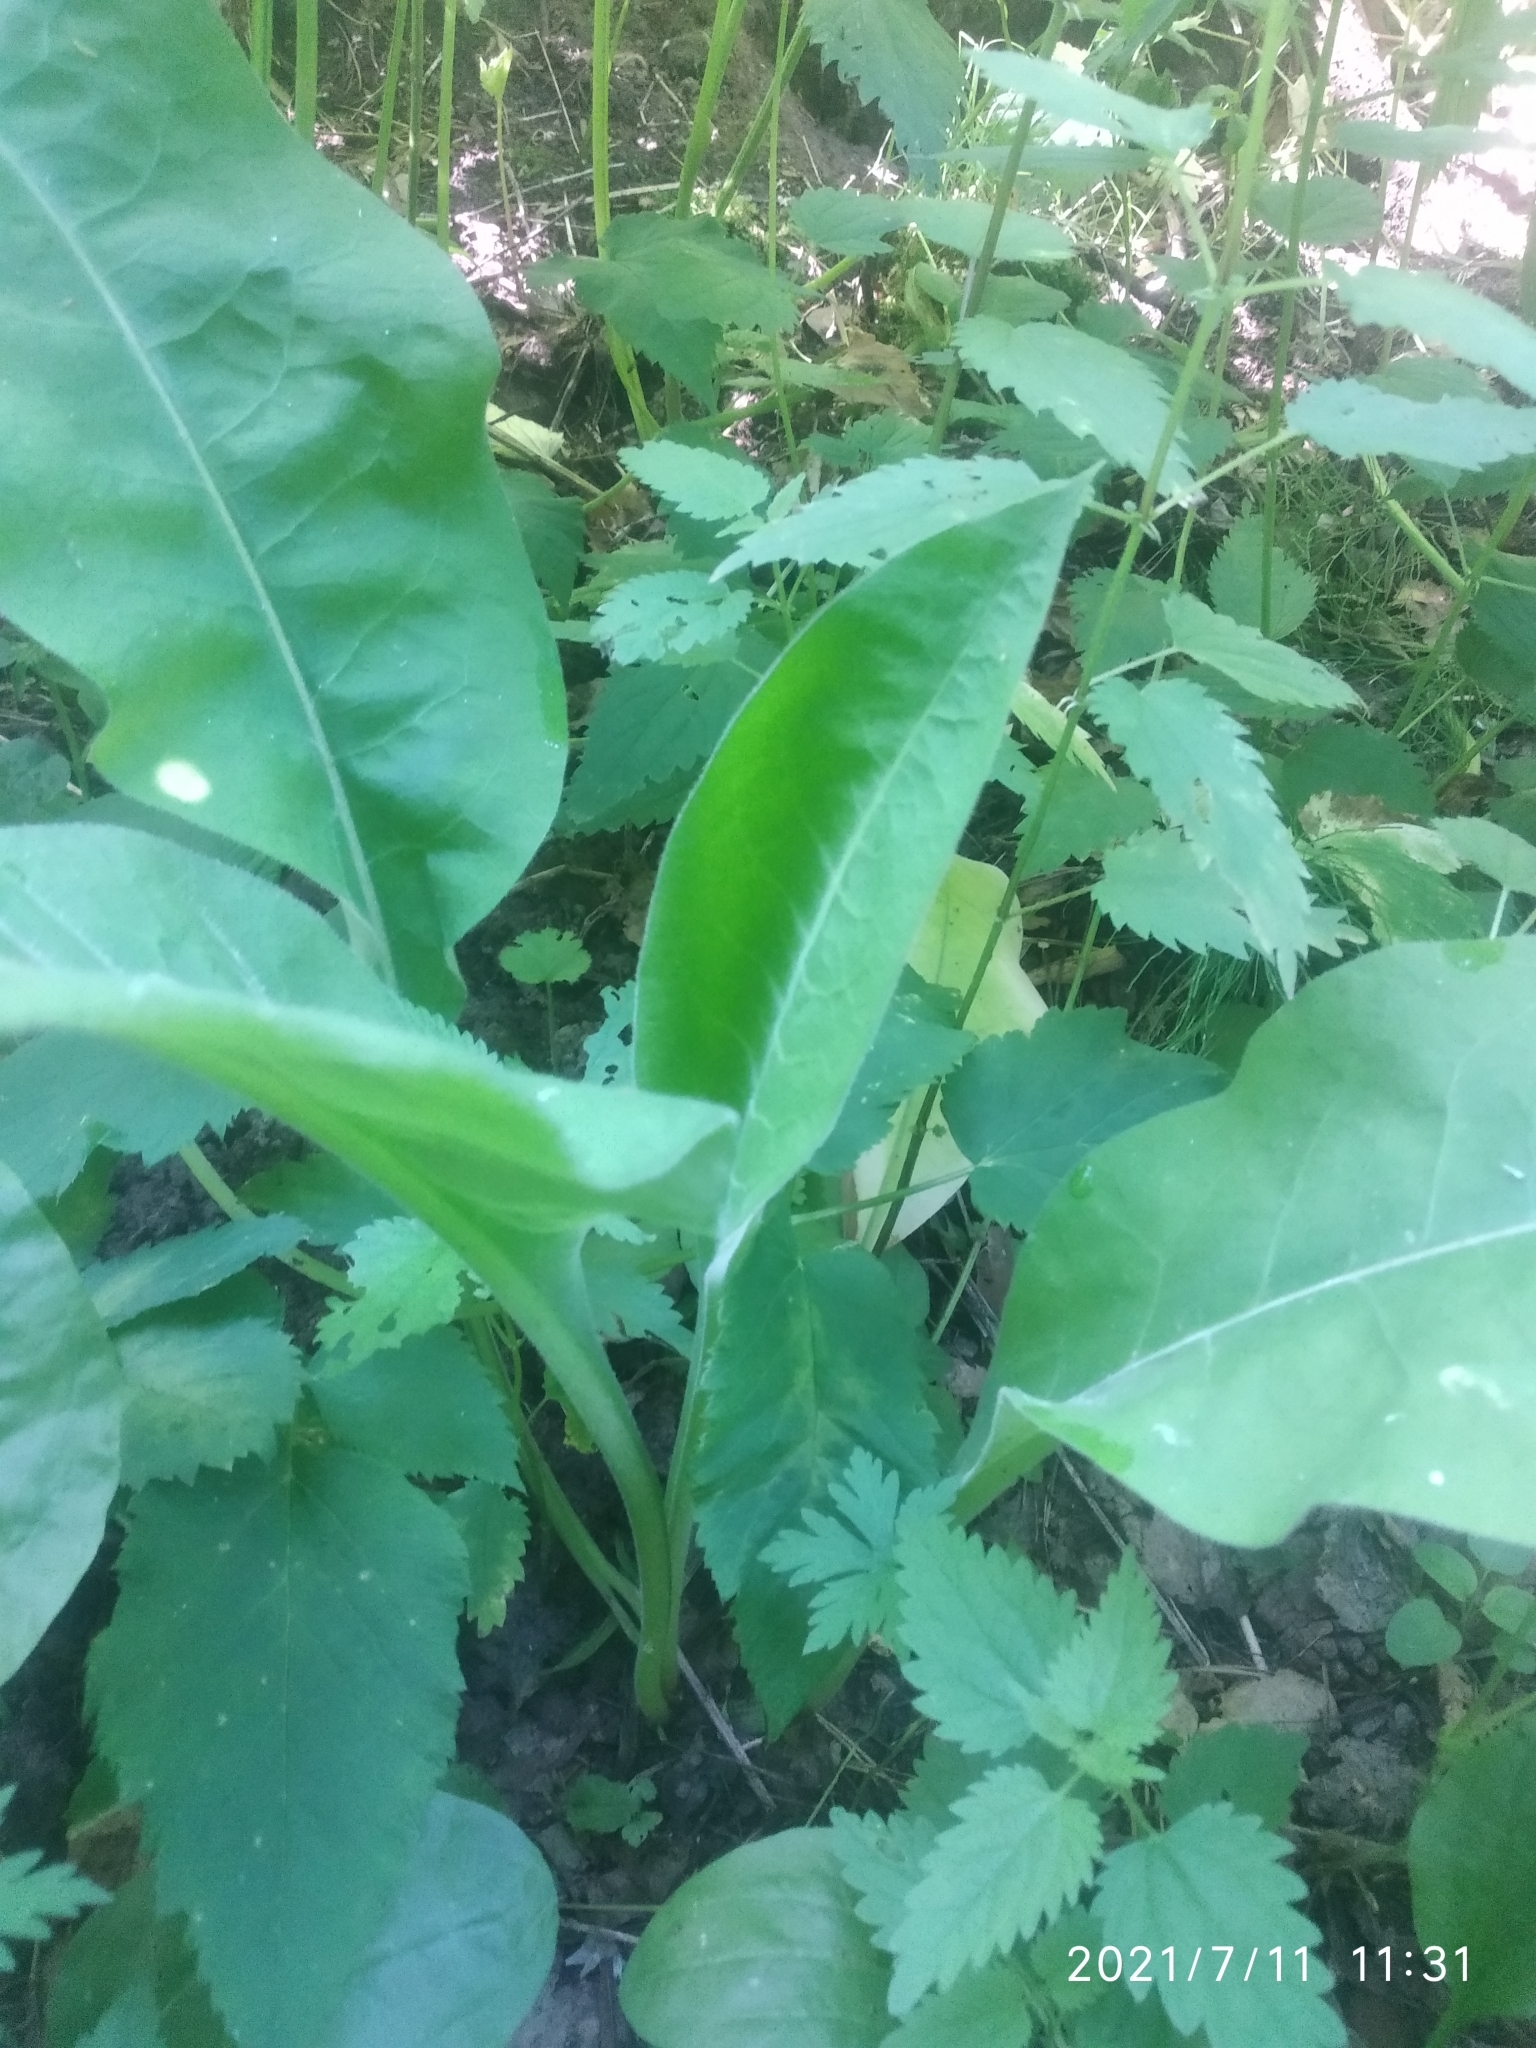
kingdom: Plantae
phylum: Tracheophyta
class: Magnoliopsida
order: Boraginales
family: Boraginaceae
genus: Pulmonaria
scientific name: Pulmonaria mollis
